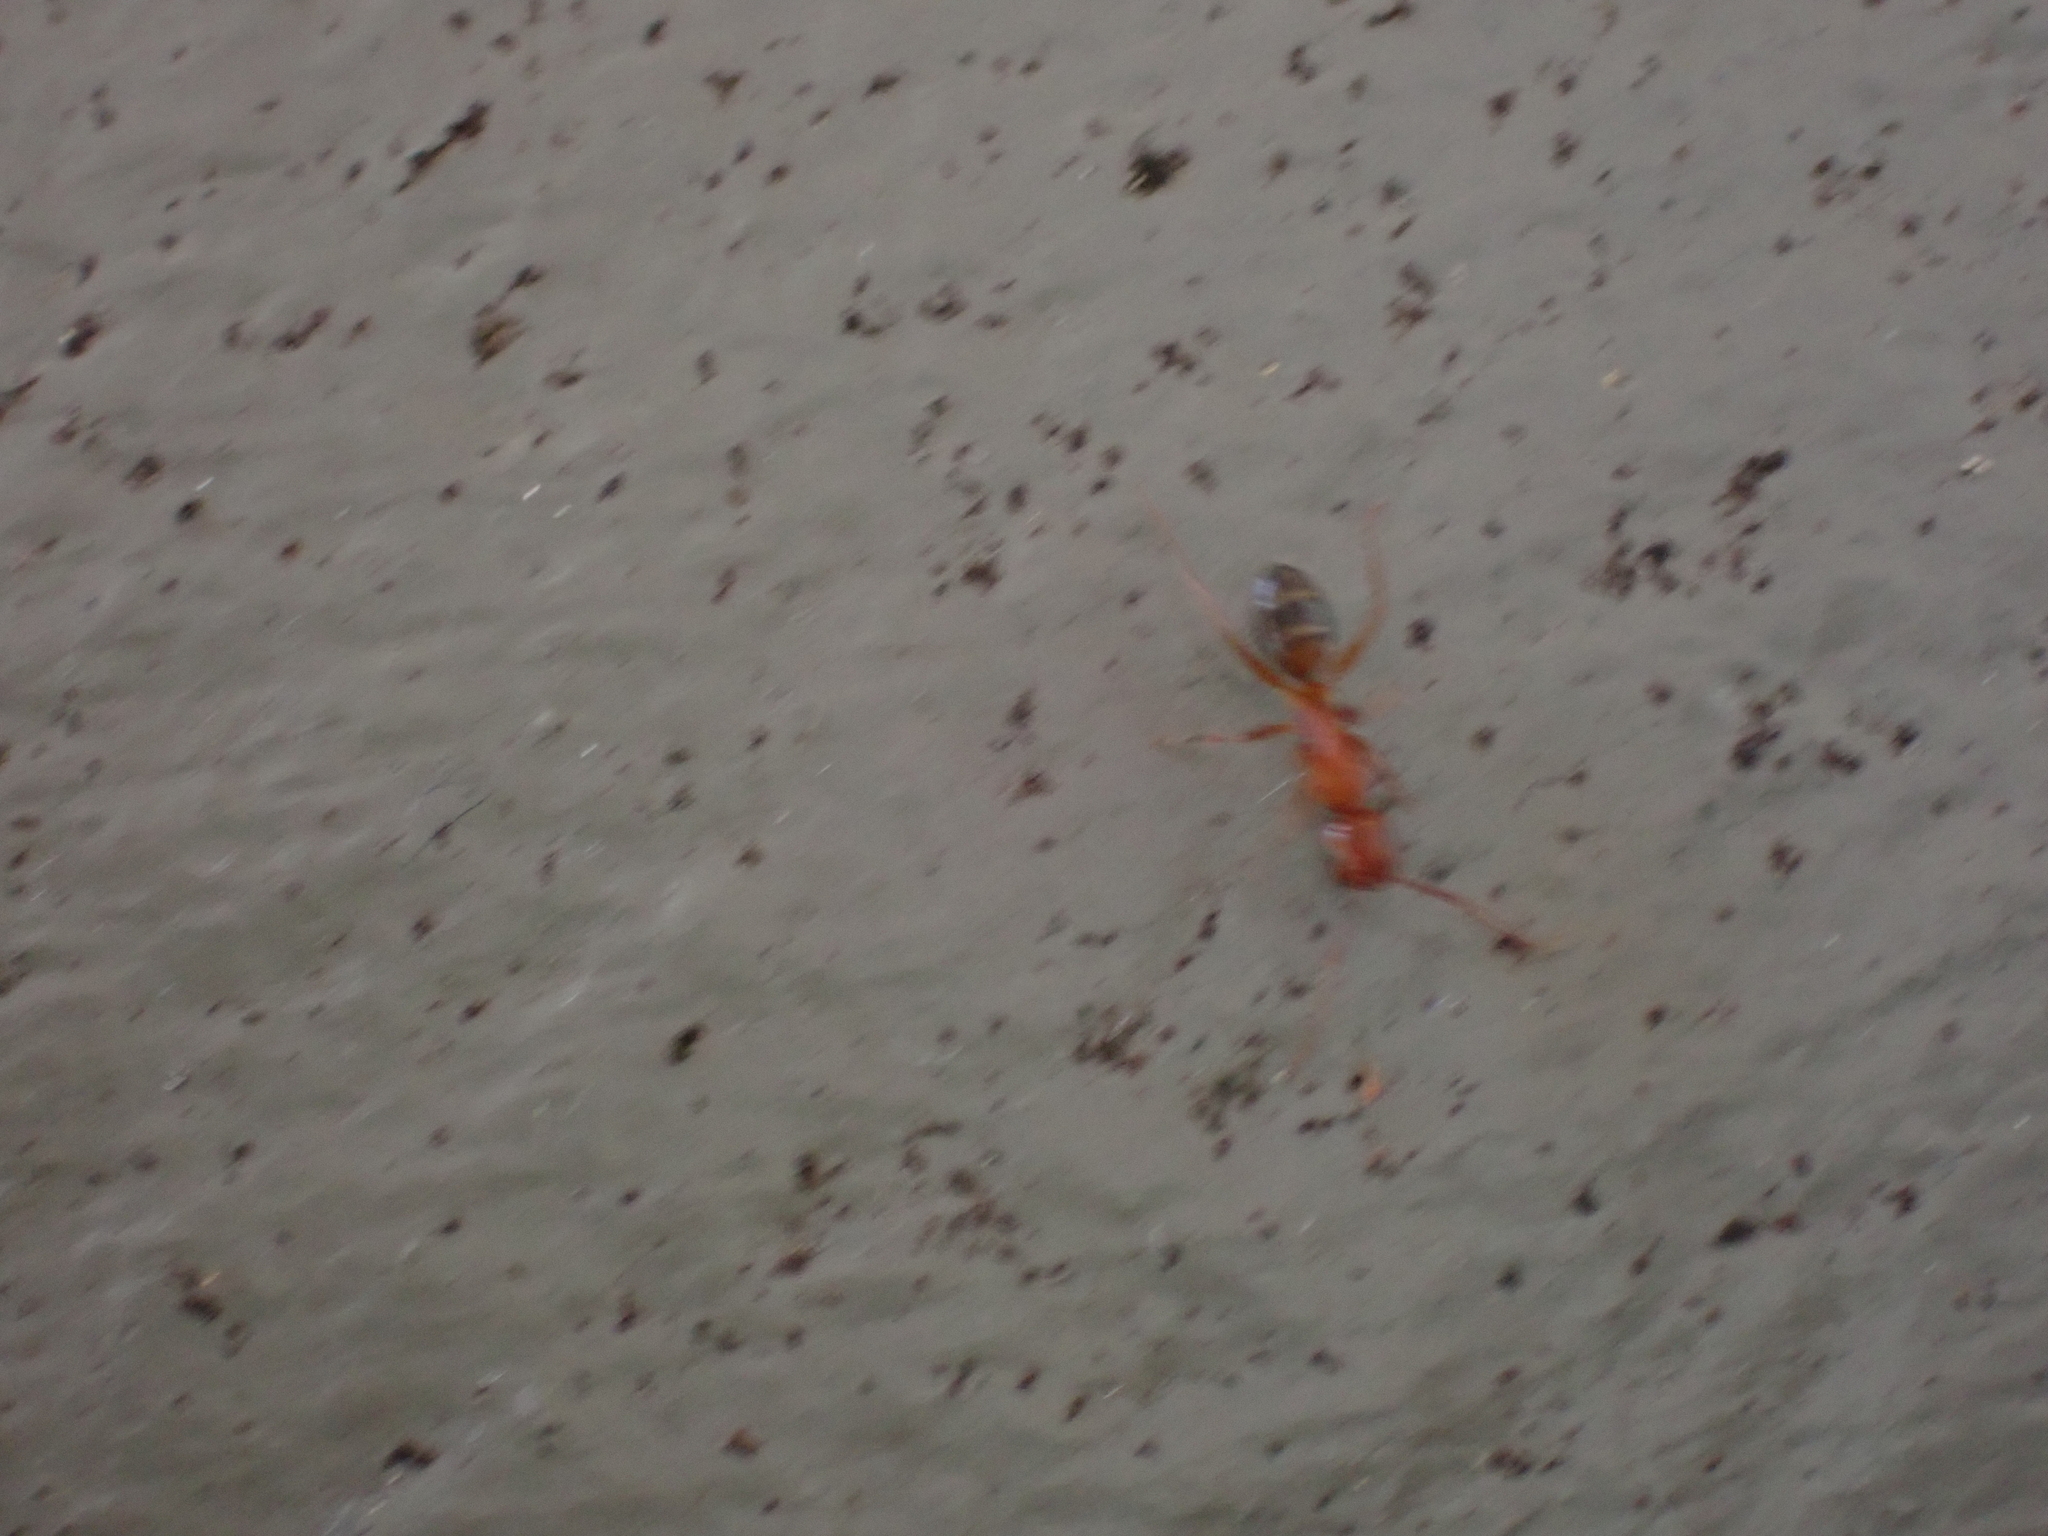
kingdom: Animalia
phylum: Arthropoda
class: Insecta
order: Hymenoptera
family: Formicidae
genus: Camponotus
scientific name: Camponotus snellingi
